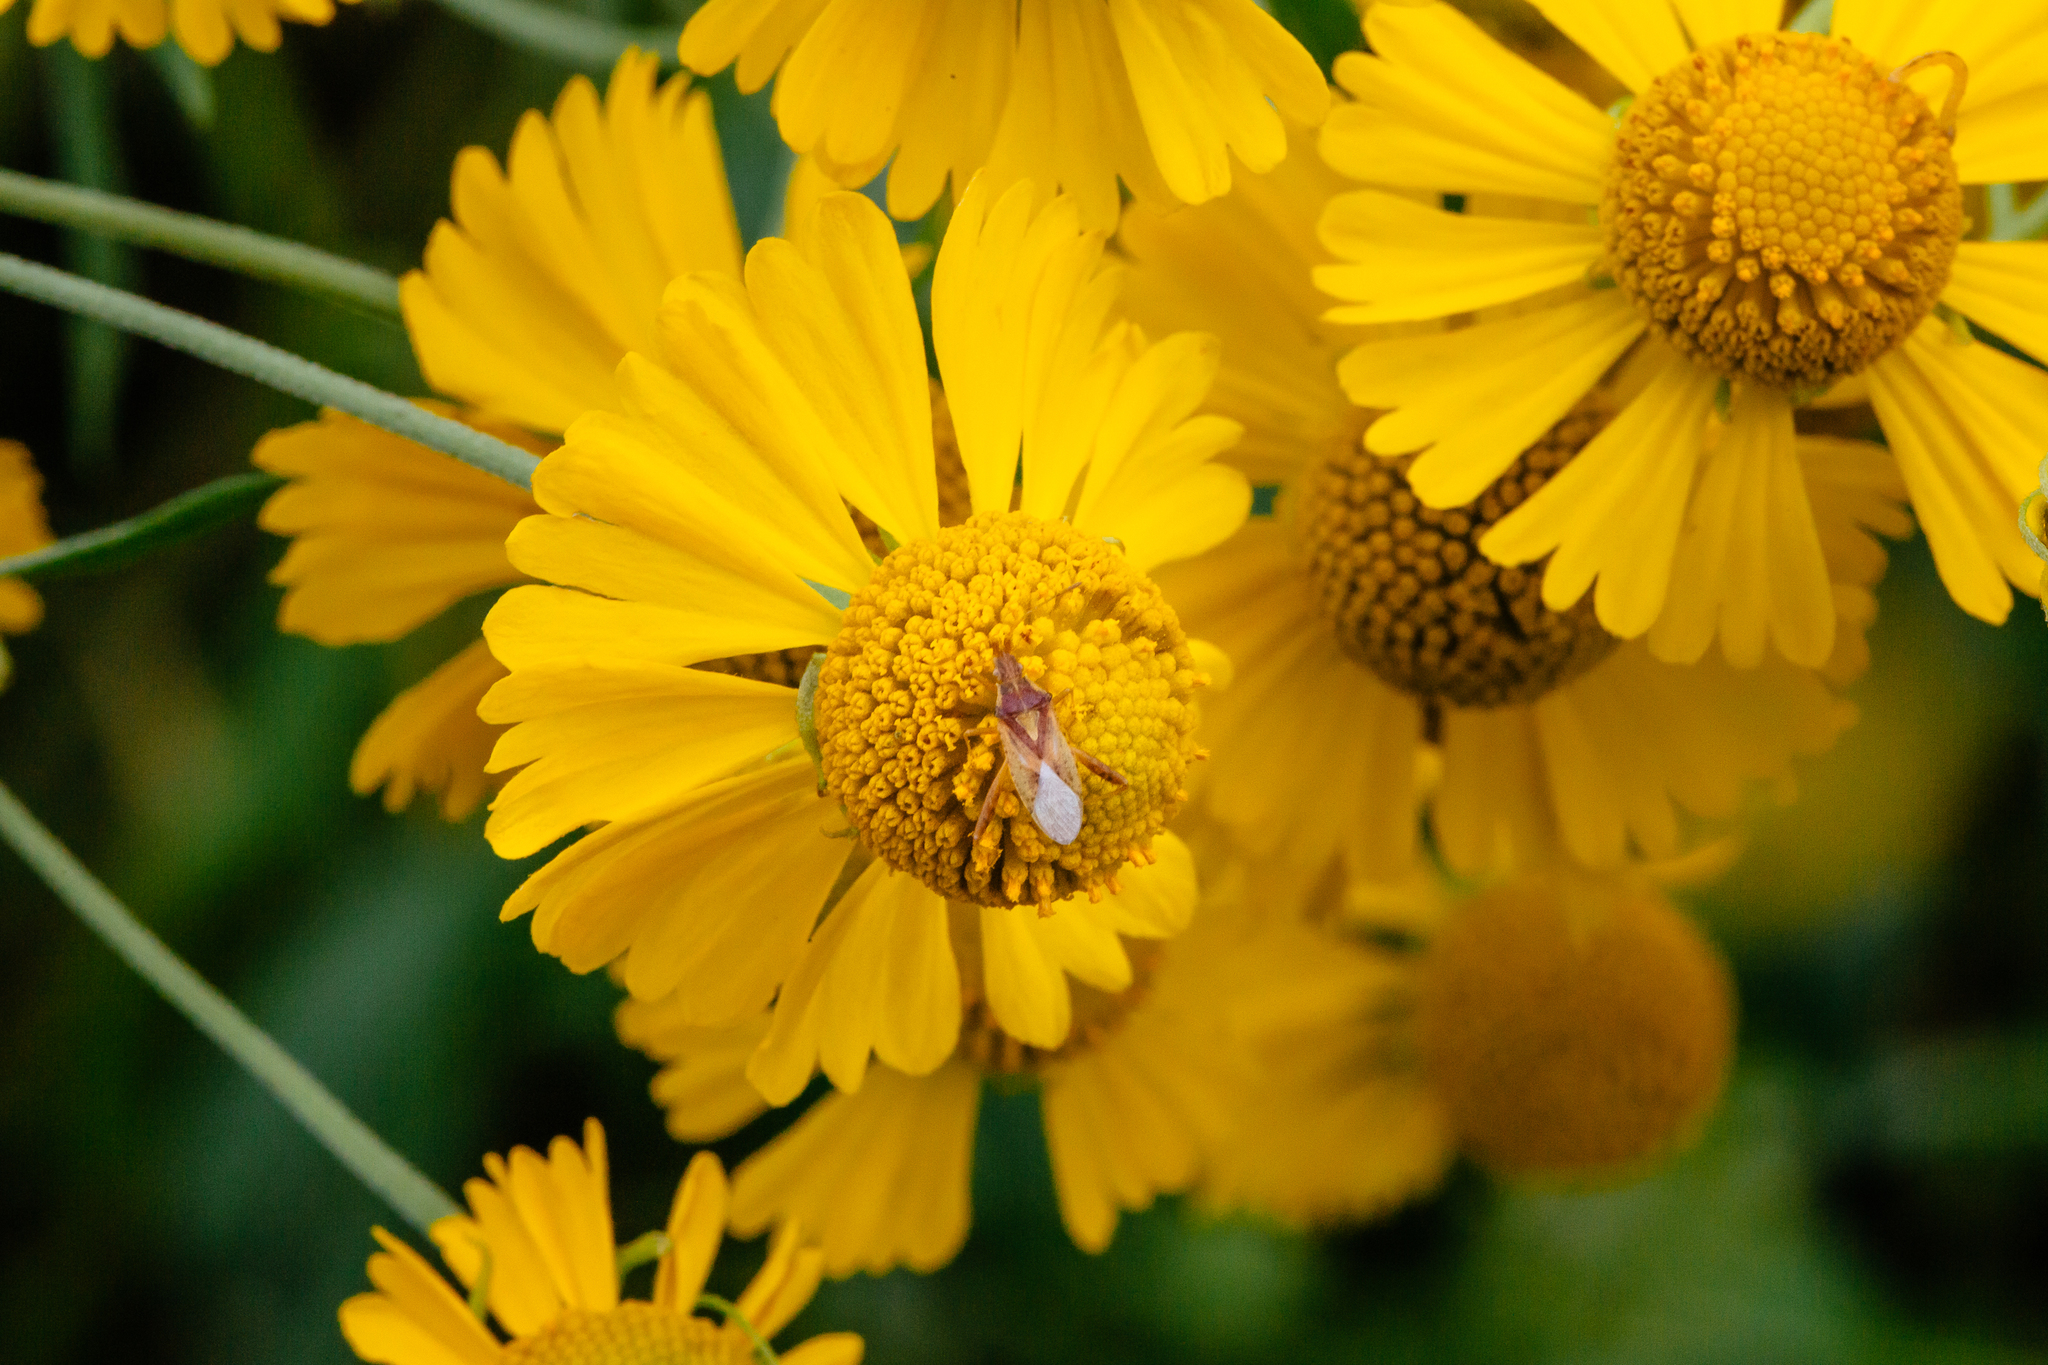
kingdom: Animalia
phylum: Arthropoda
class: Insecta
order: Hemiptera
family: Rhopalidae
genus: Harmostes
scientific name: Harmostes reflexulus
